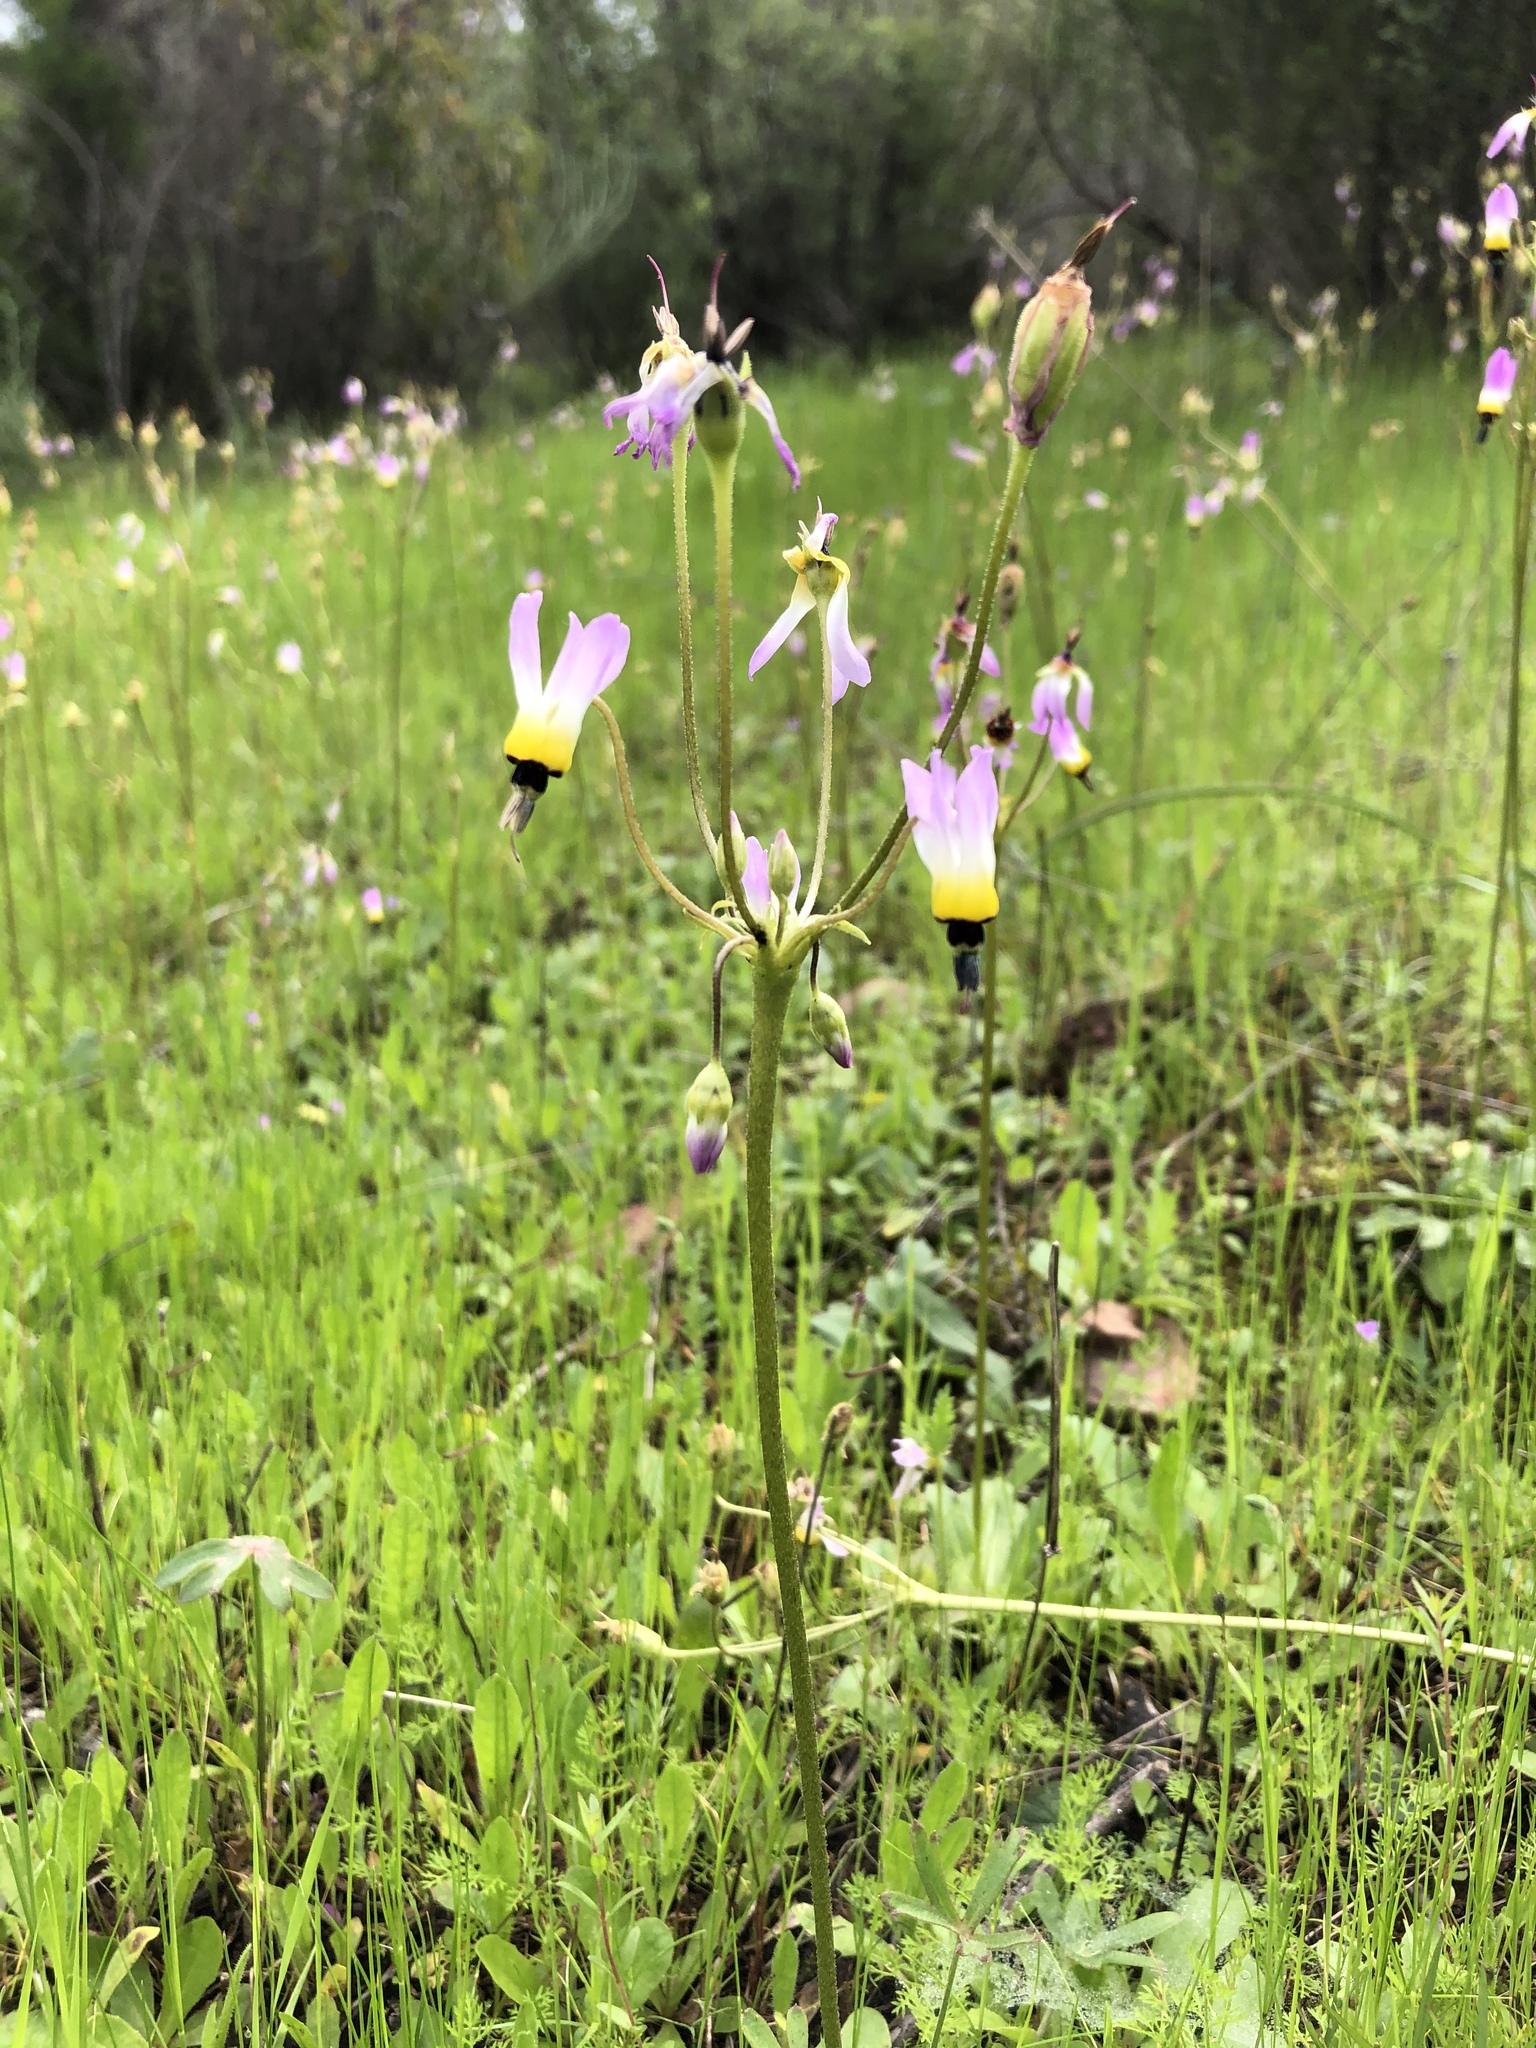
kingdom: Plantae
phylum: Tracheophyta
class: Magnoliopsida
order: Ericales
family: Primulaceae
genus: Dodecatheon
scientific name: Dodecatheon clevelandii
